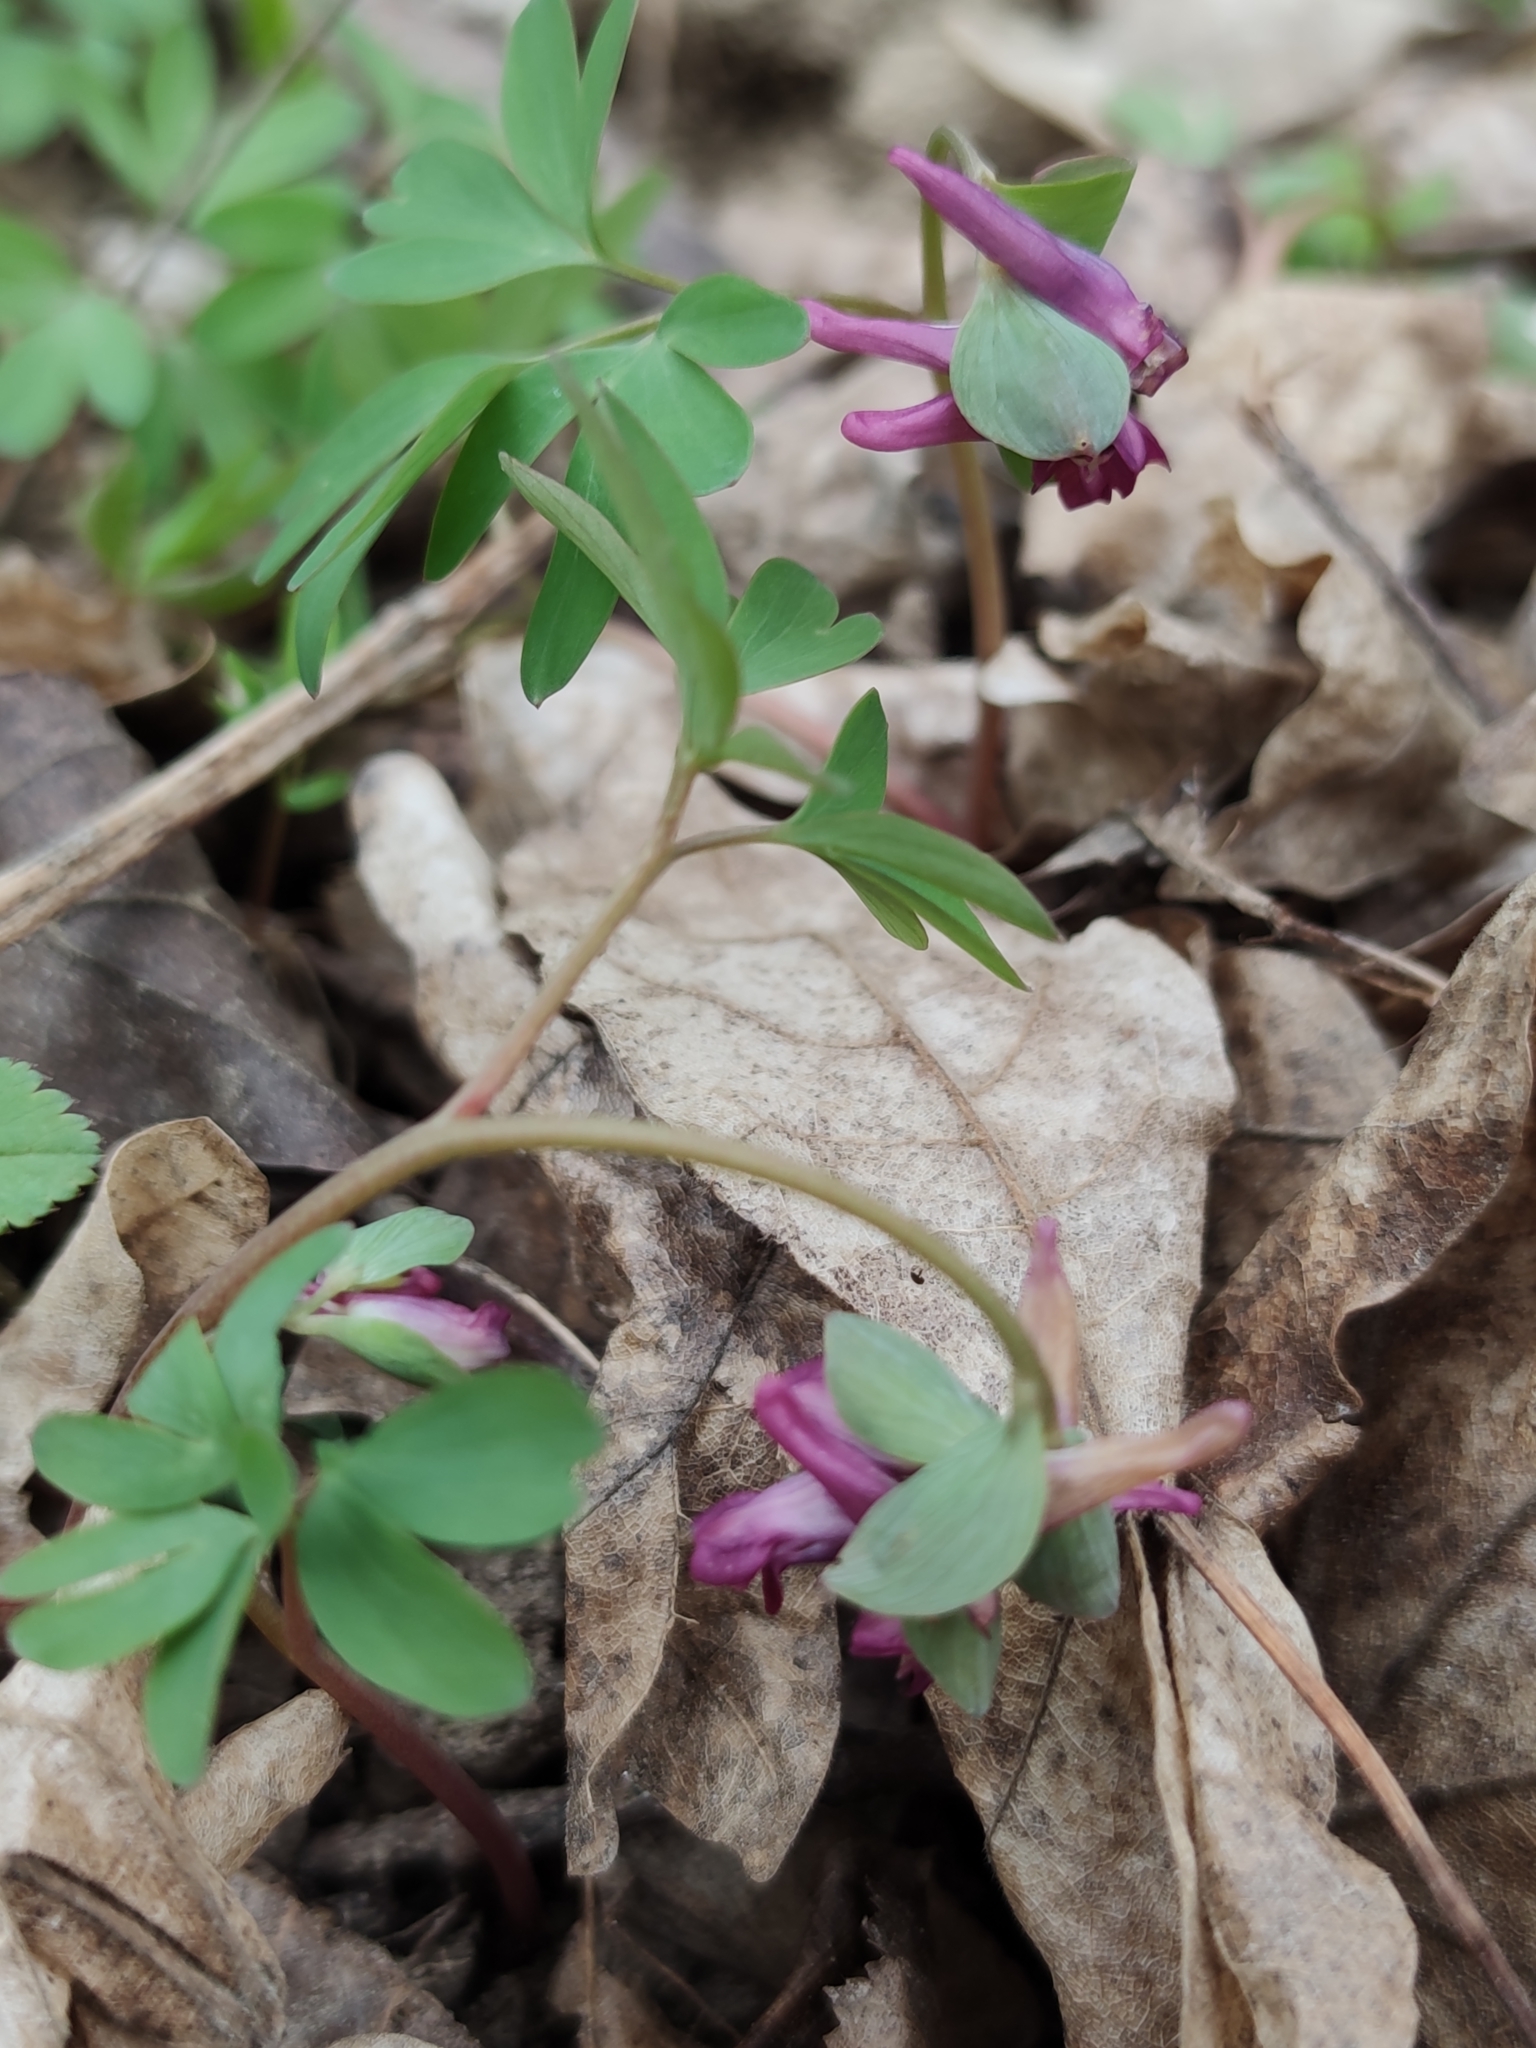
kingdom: Plantae
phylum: Tracheophyta
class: Magnoliopsida
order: Ranunculales
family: Papaveraceae
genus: Corydalis
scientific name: Corydalis intermedia
